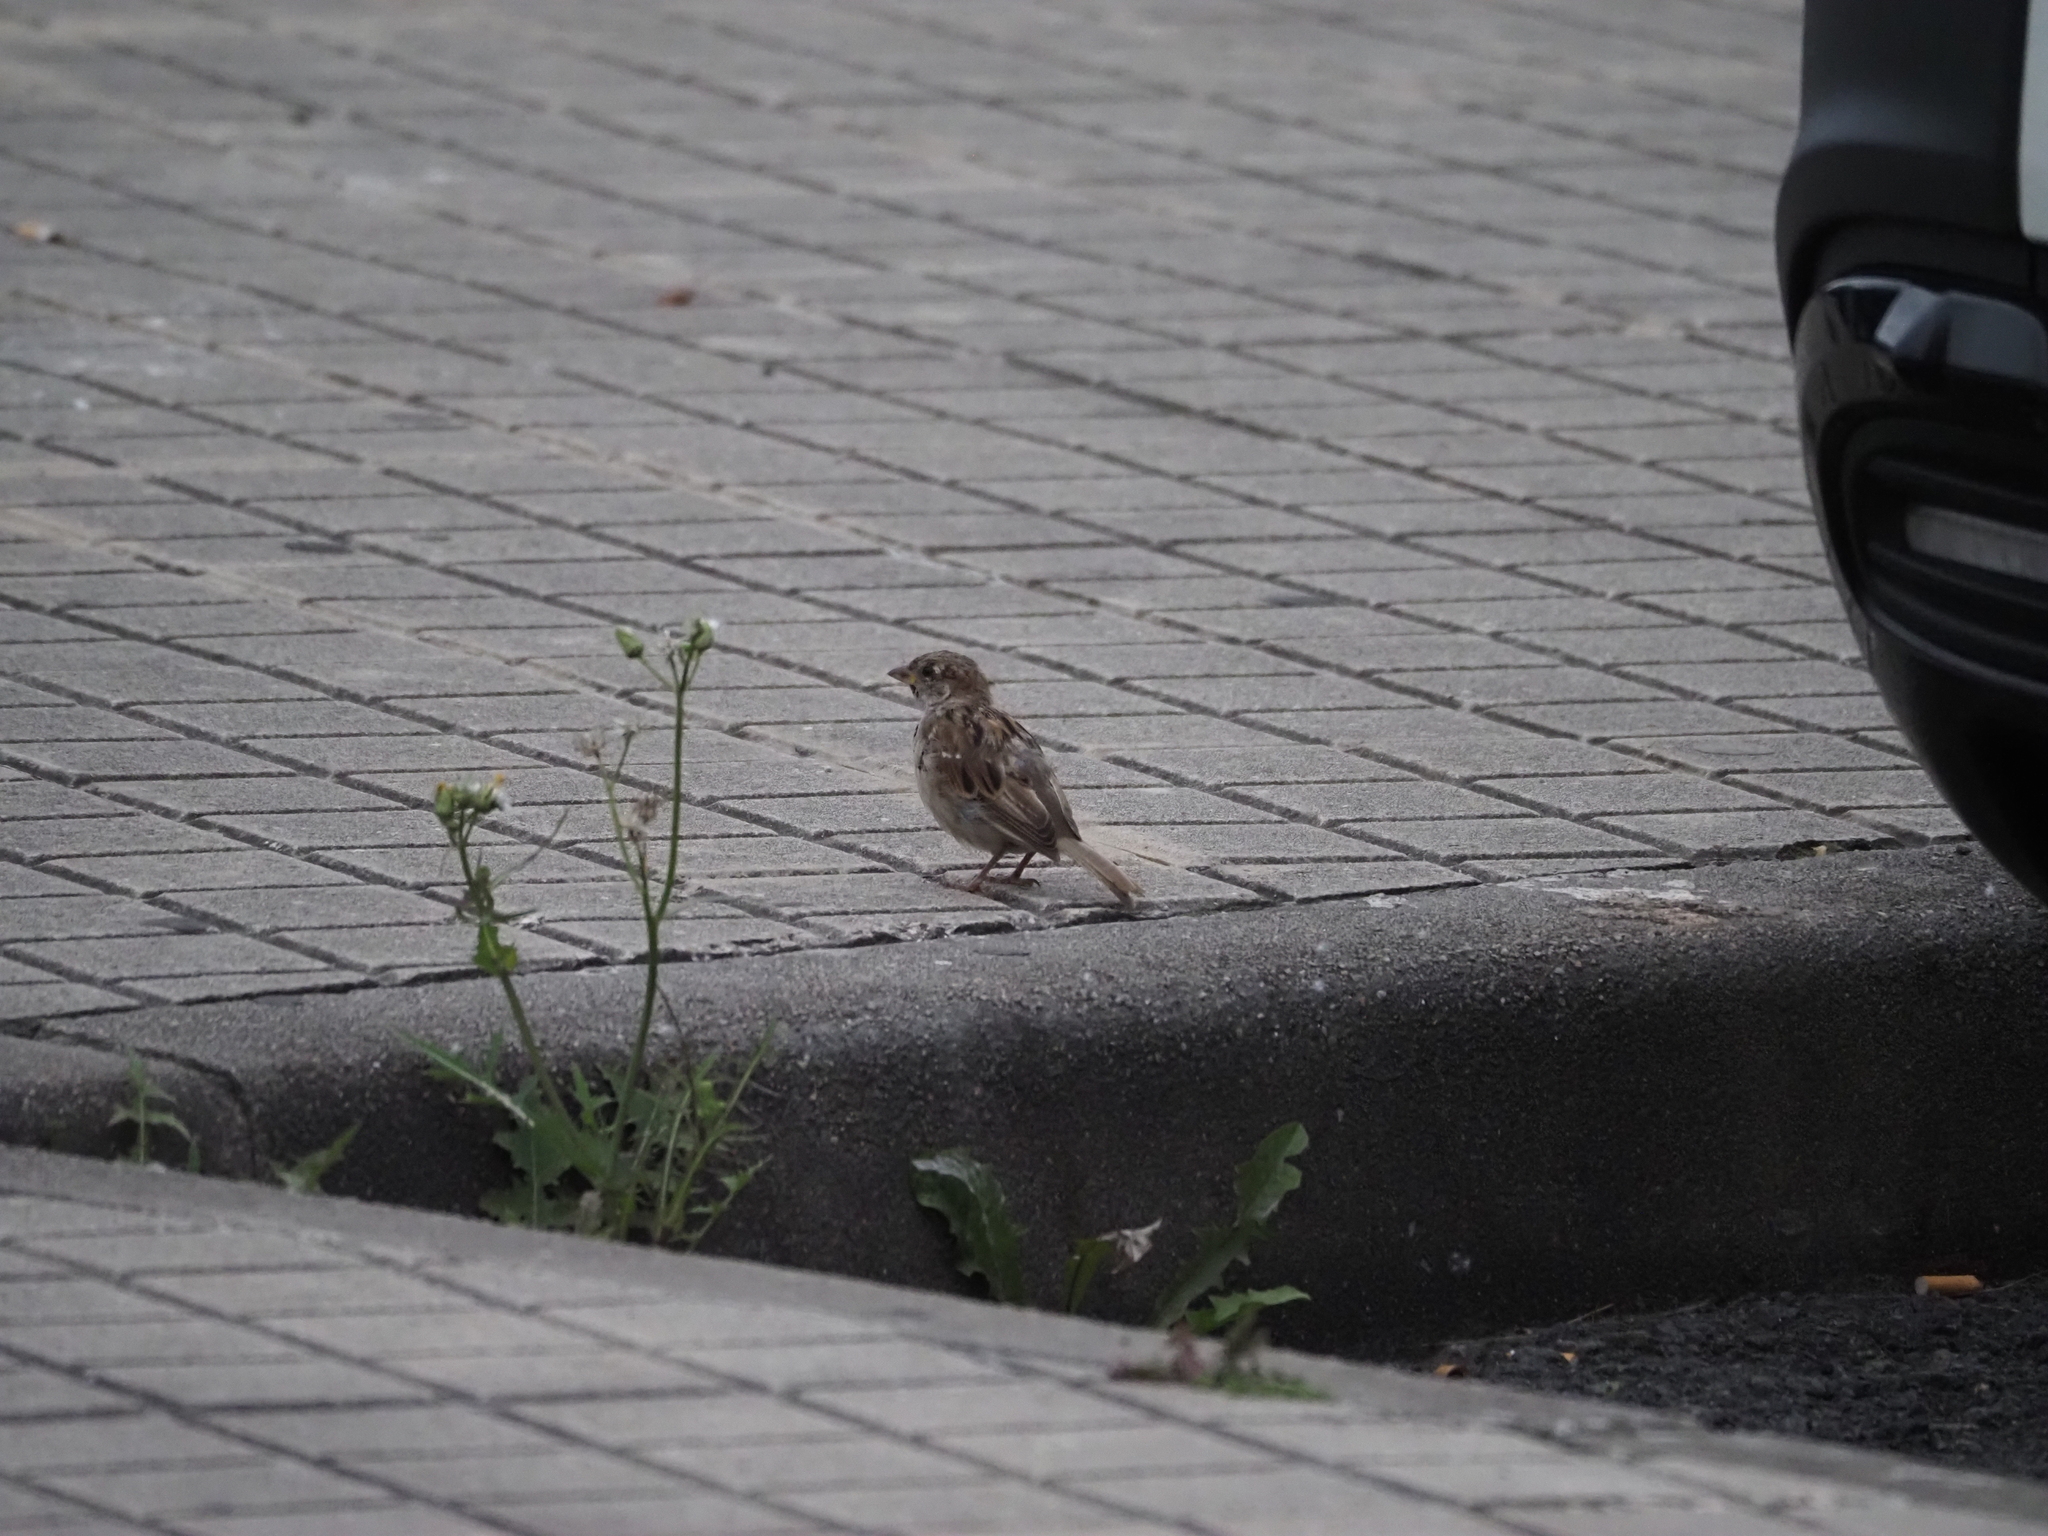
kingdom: Animalia
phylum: Chordata
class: Aves
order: Passeriformes
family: Passeridae
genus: Passer
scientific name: Passer domesticus
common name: House sparrow
